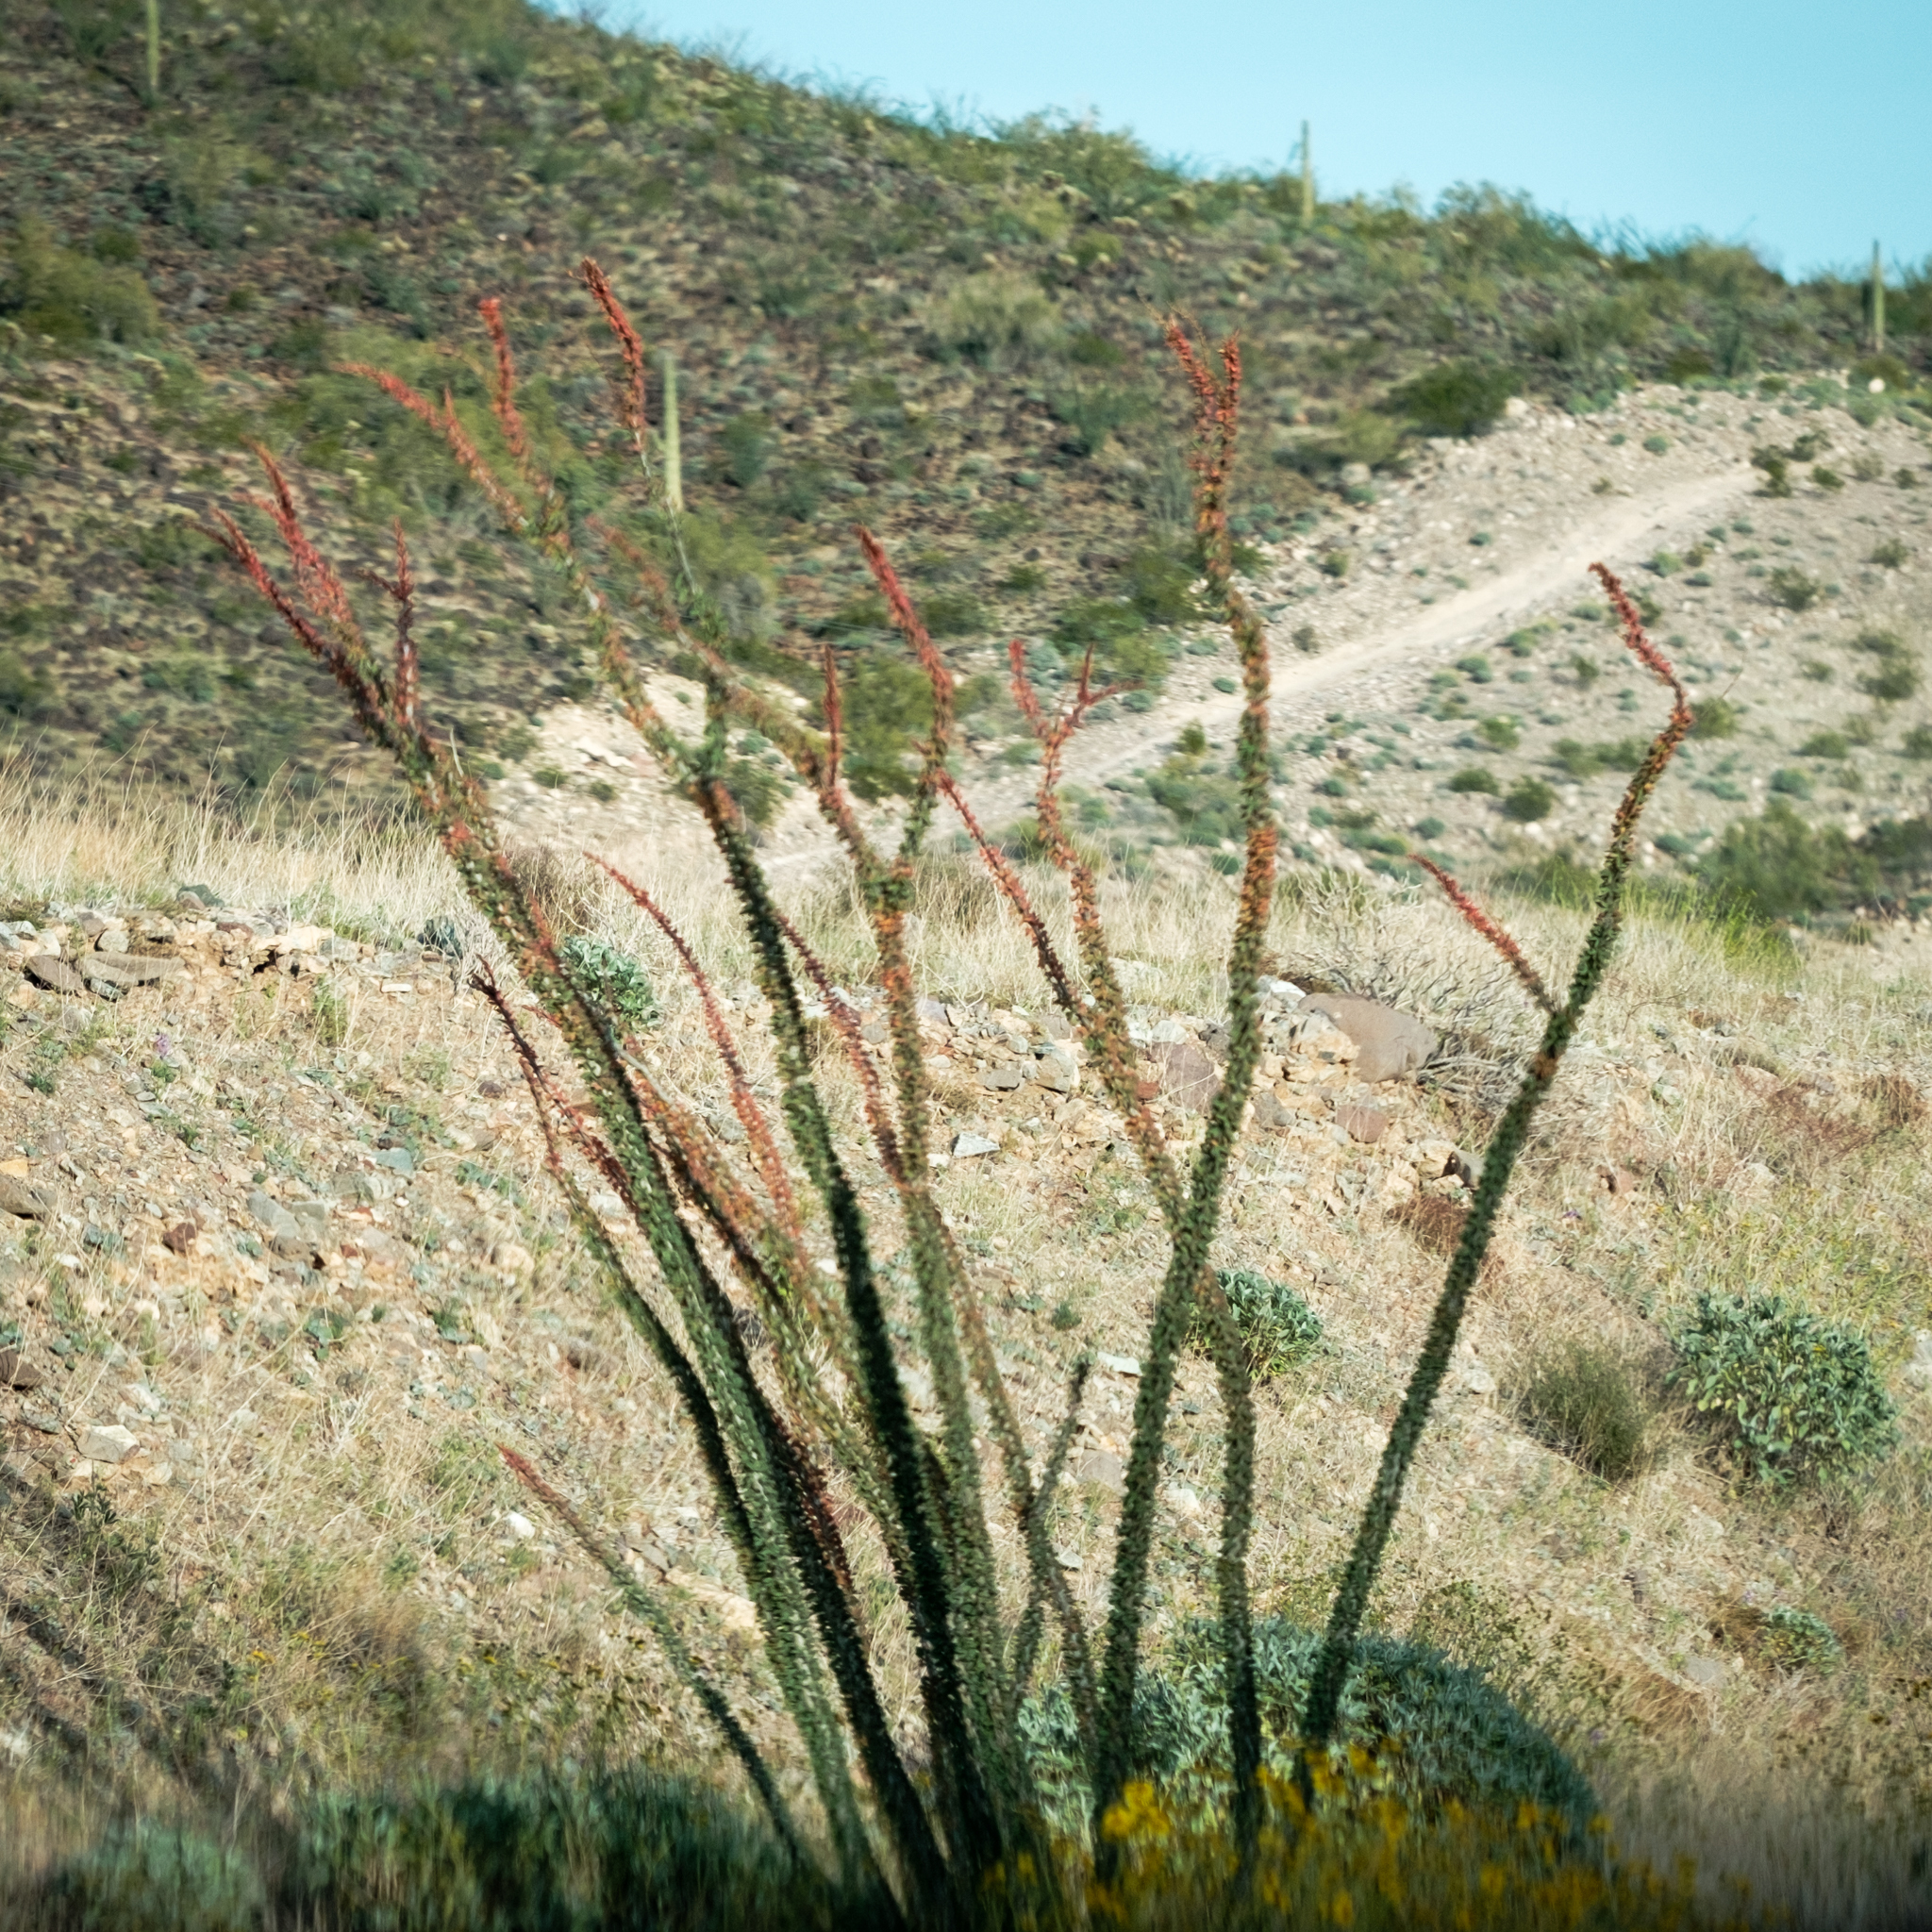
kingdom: Plantae
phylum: Tracheophyta
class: Magnoliopsida
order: Ericales
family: Fouquieriaceae
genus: Fouquieria
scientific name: Fouquieria splendens
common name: Vine-cactus
